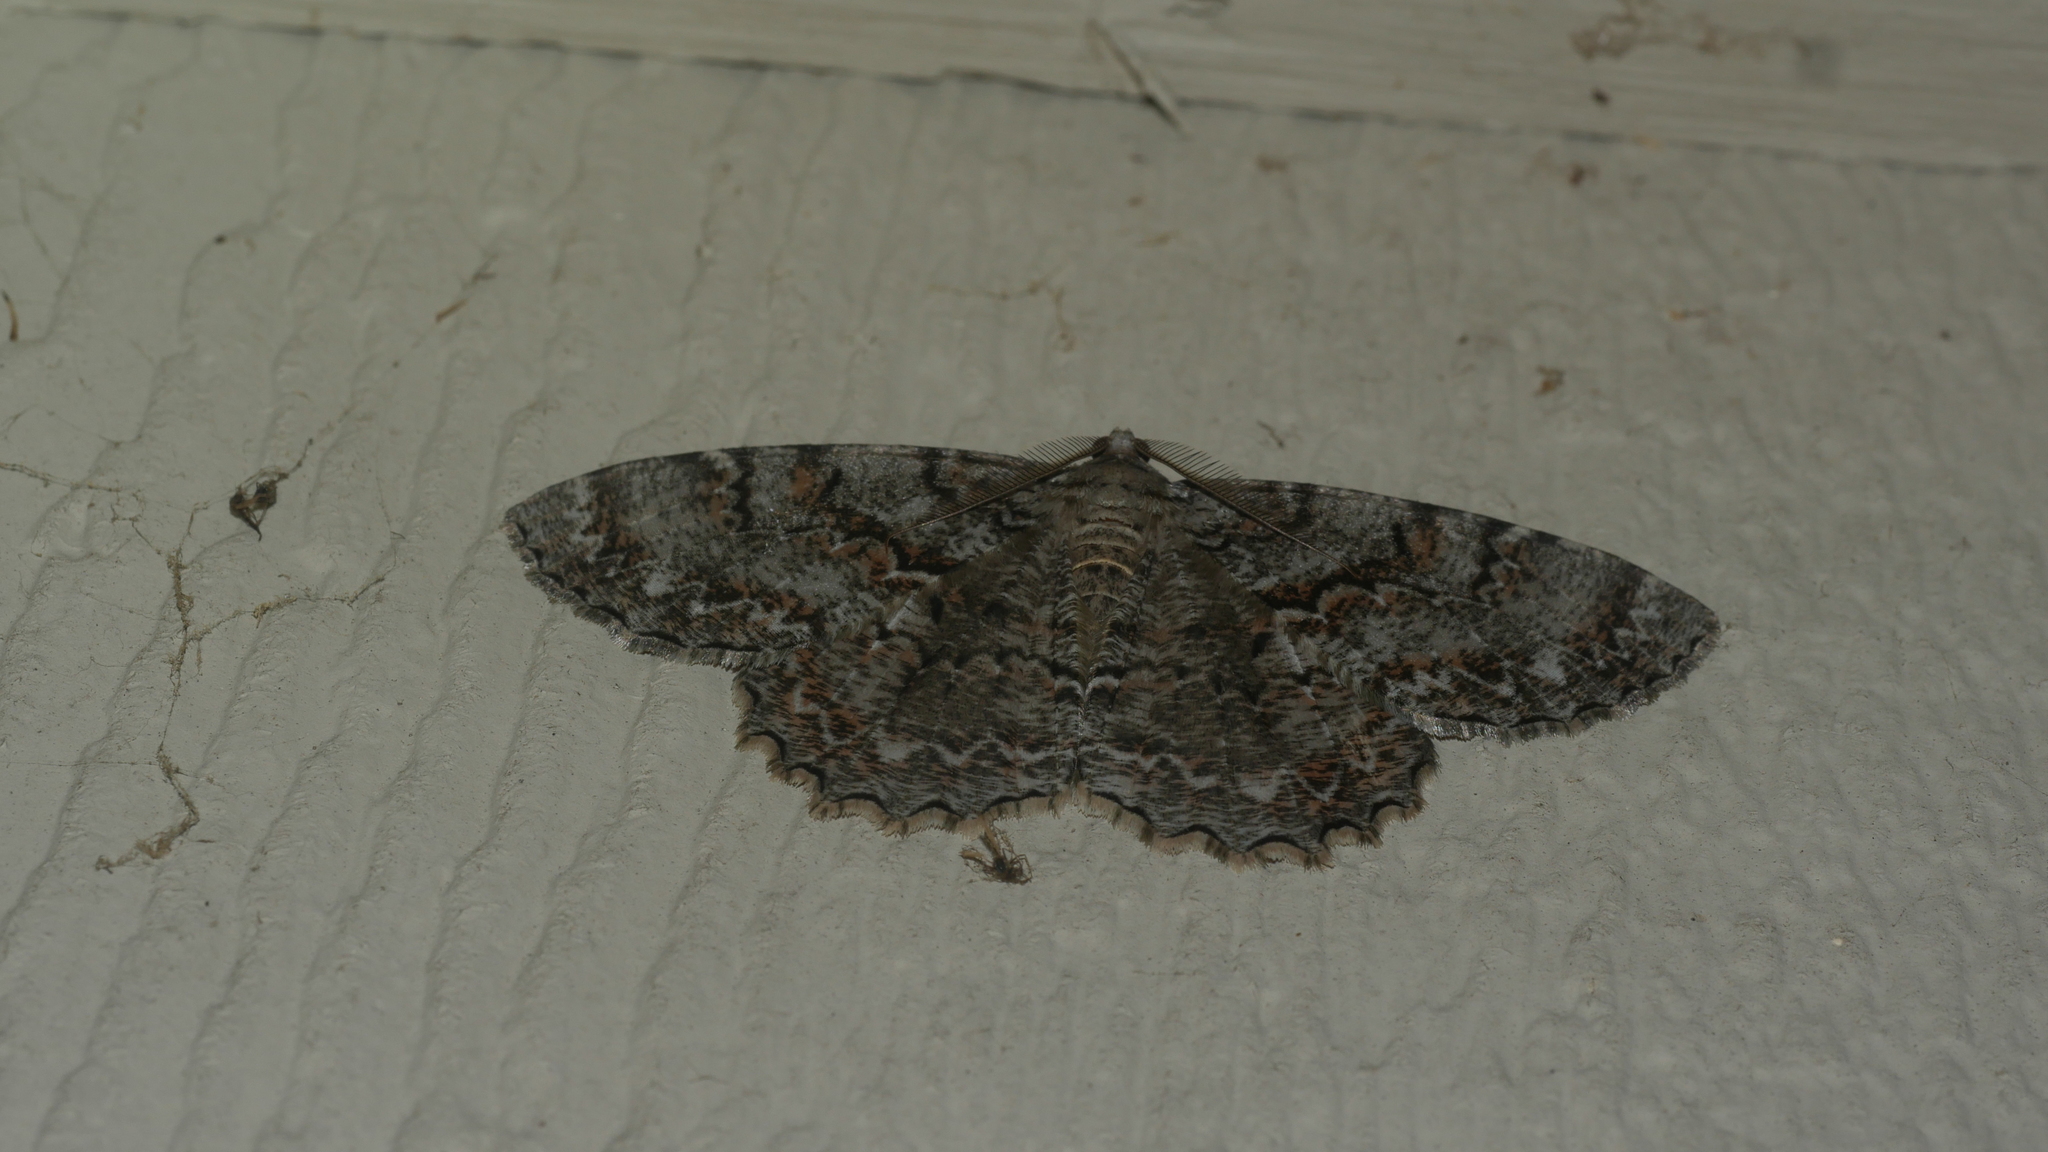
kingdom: Animalia
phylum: Arthropoda
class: Insecta
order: Lepidoptera
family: Geometridae
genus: Epimecis
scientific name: Epimecis hortaria
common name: Tulip-tree beauty
